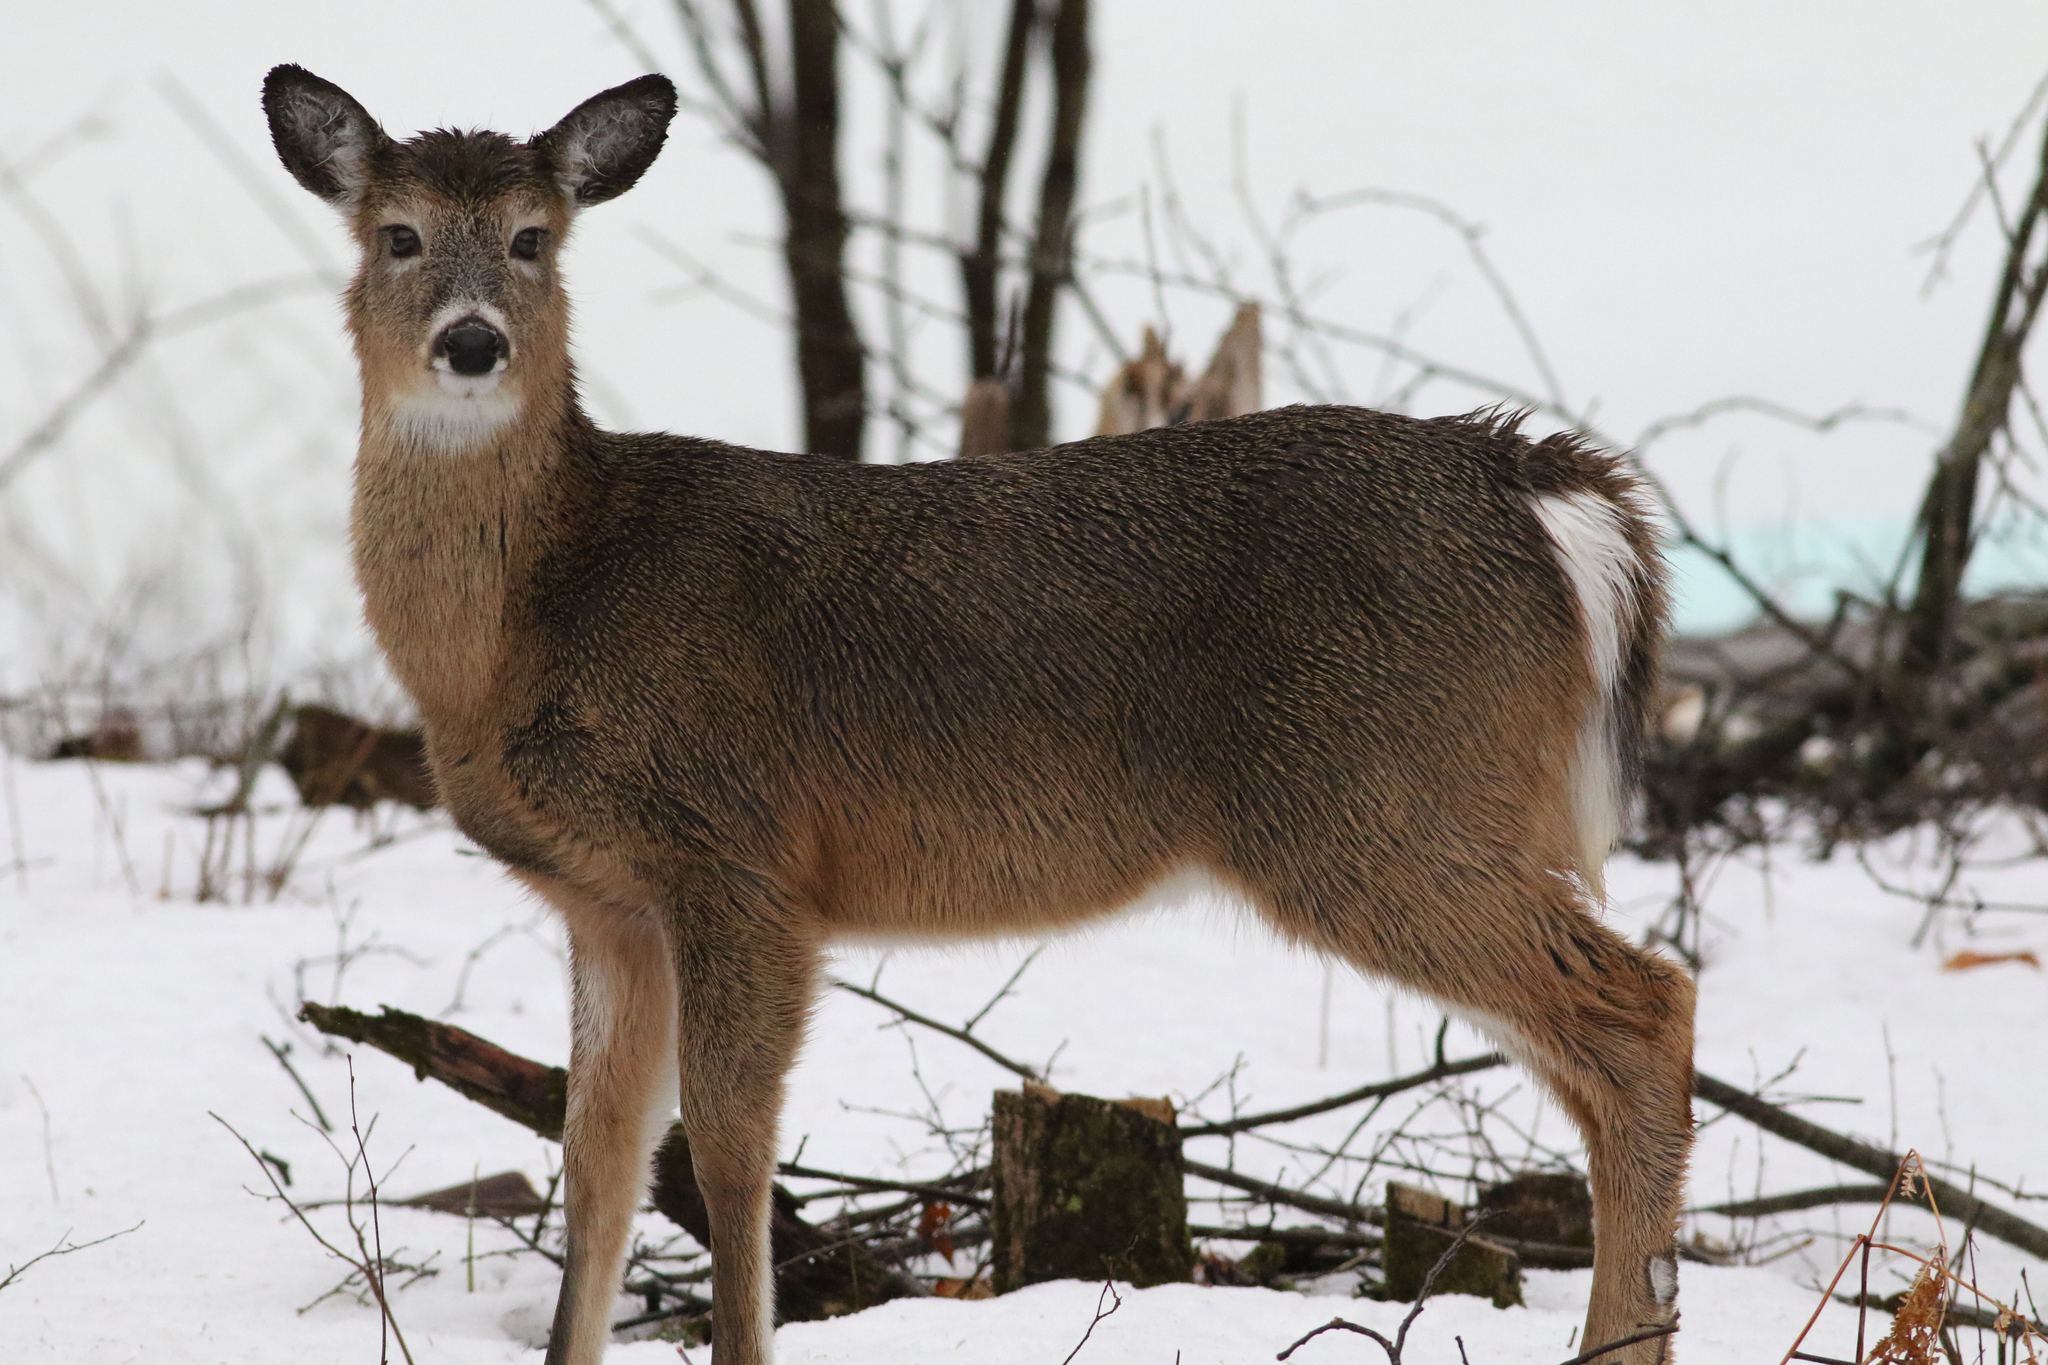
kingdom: Animalia
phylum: Chordata
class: Mammalia
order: Artiodactyla
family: Cervidae
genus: Odocoileus
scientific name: Odocoileus virginianus
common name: White-tailed deer
